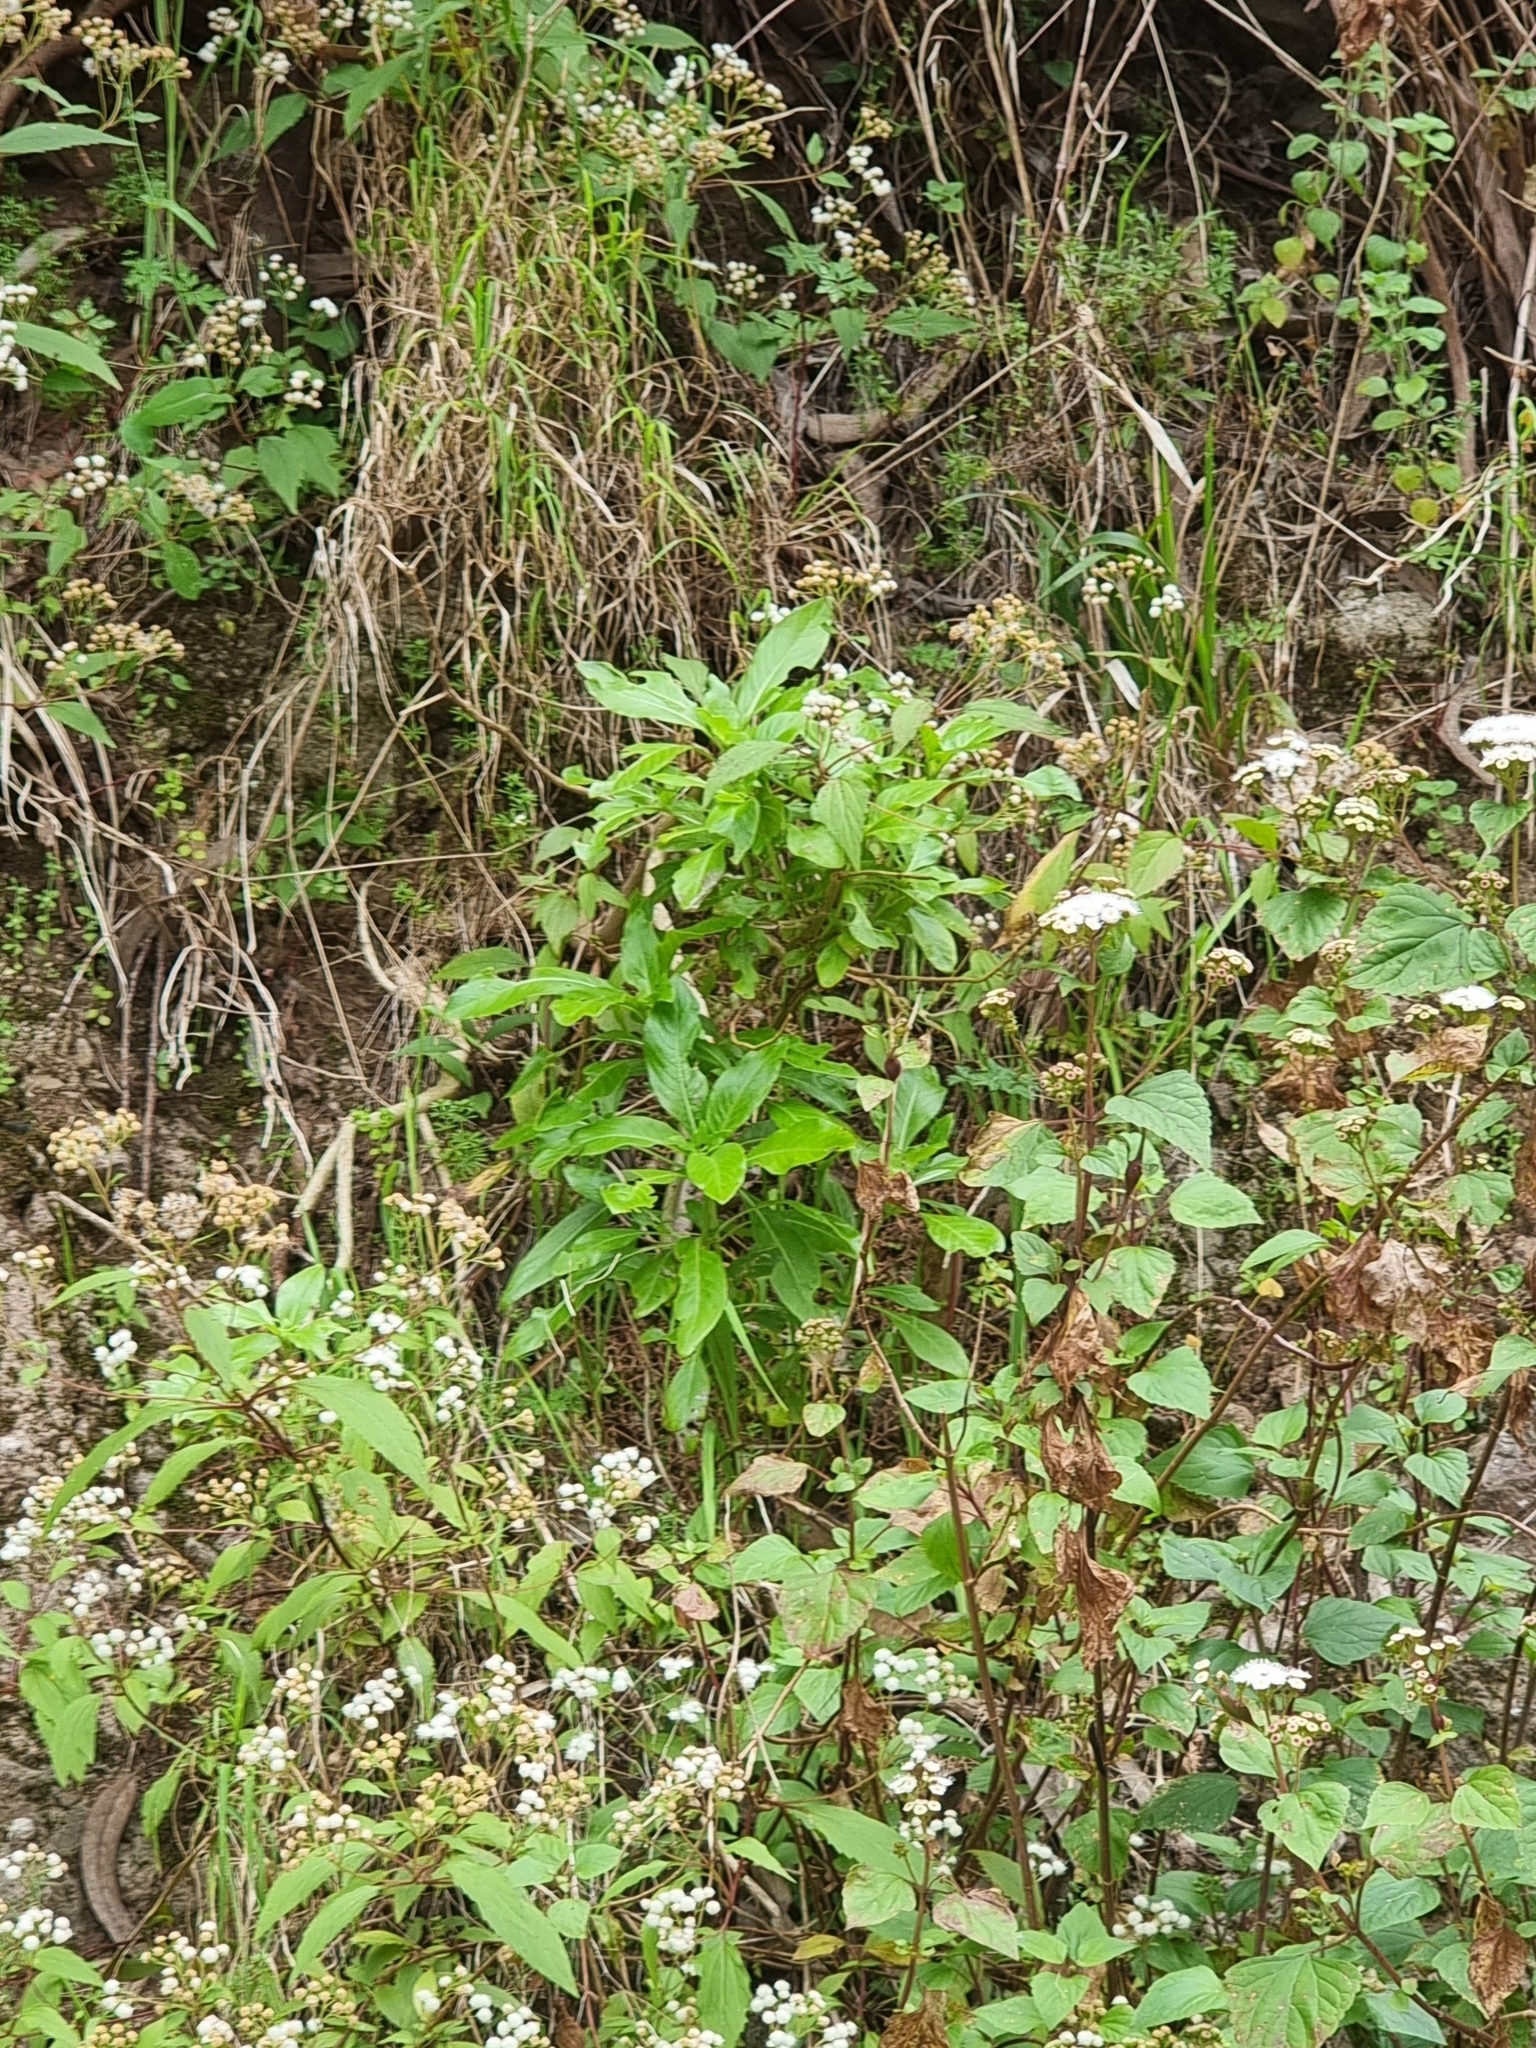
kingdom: Plantae
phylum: Tracheophyta
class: Magnoliopsida
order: Gentianales
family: Rubiaceae
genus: Phyllis
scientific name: Phyllis nobla
